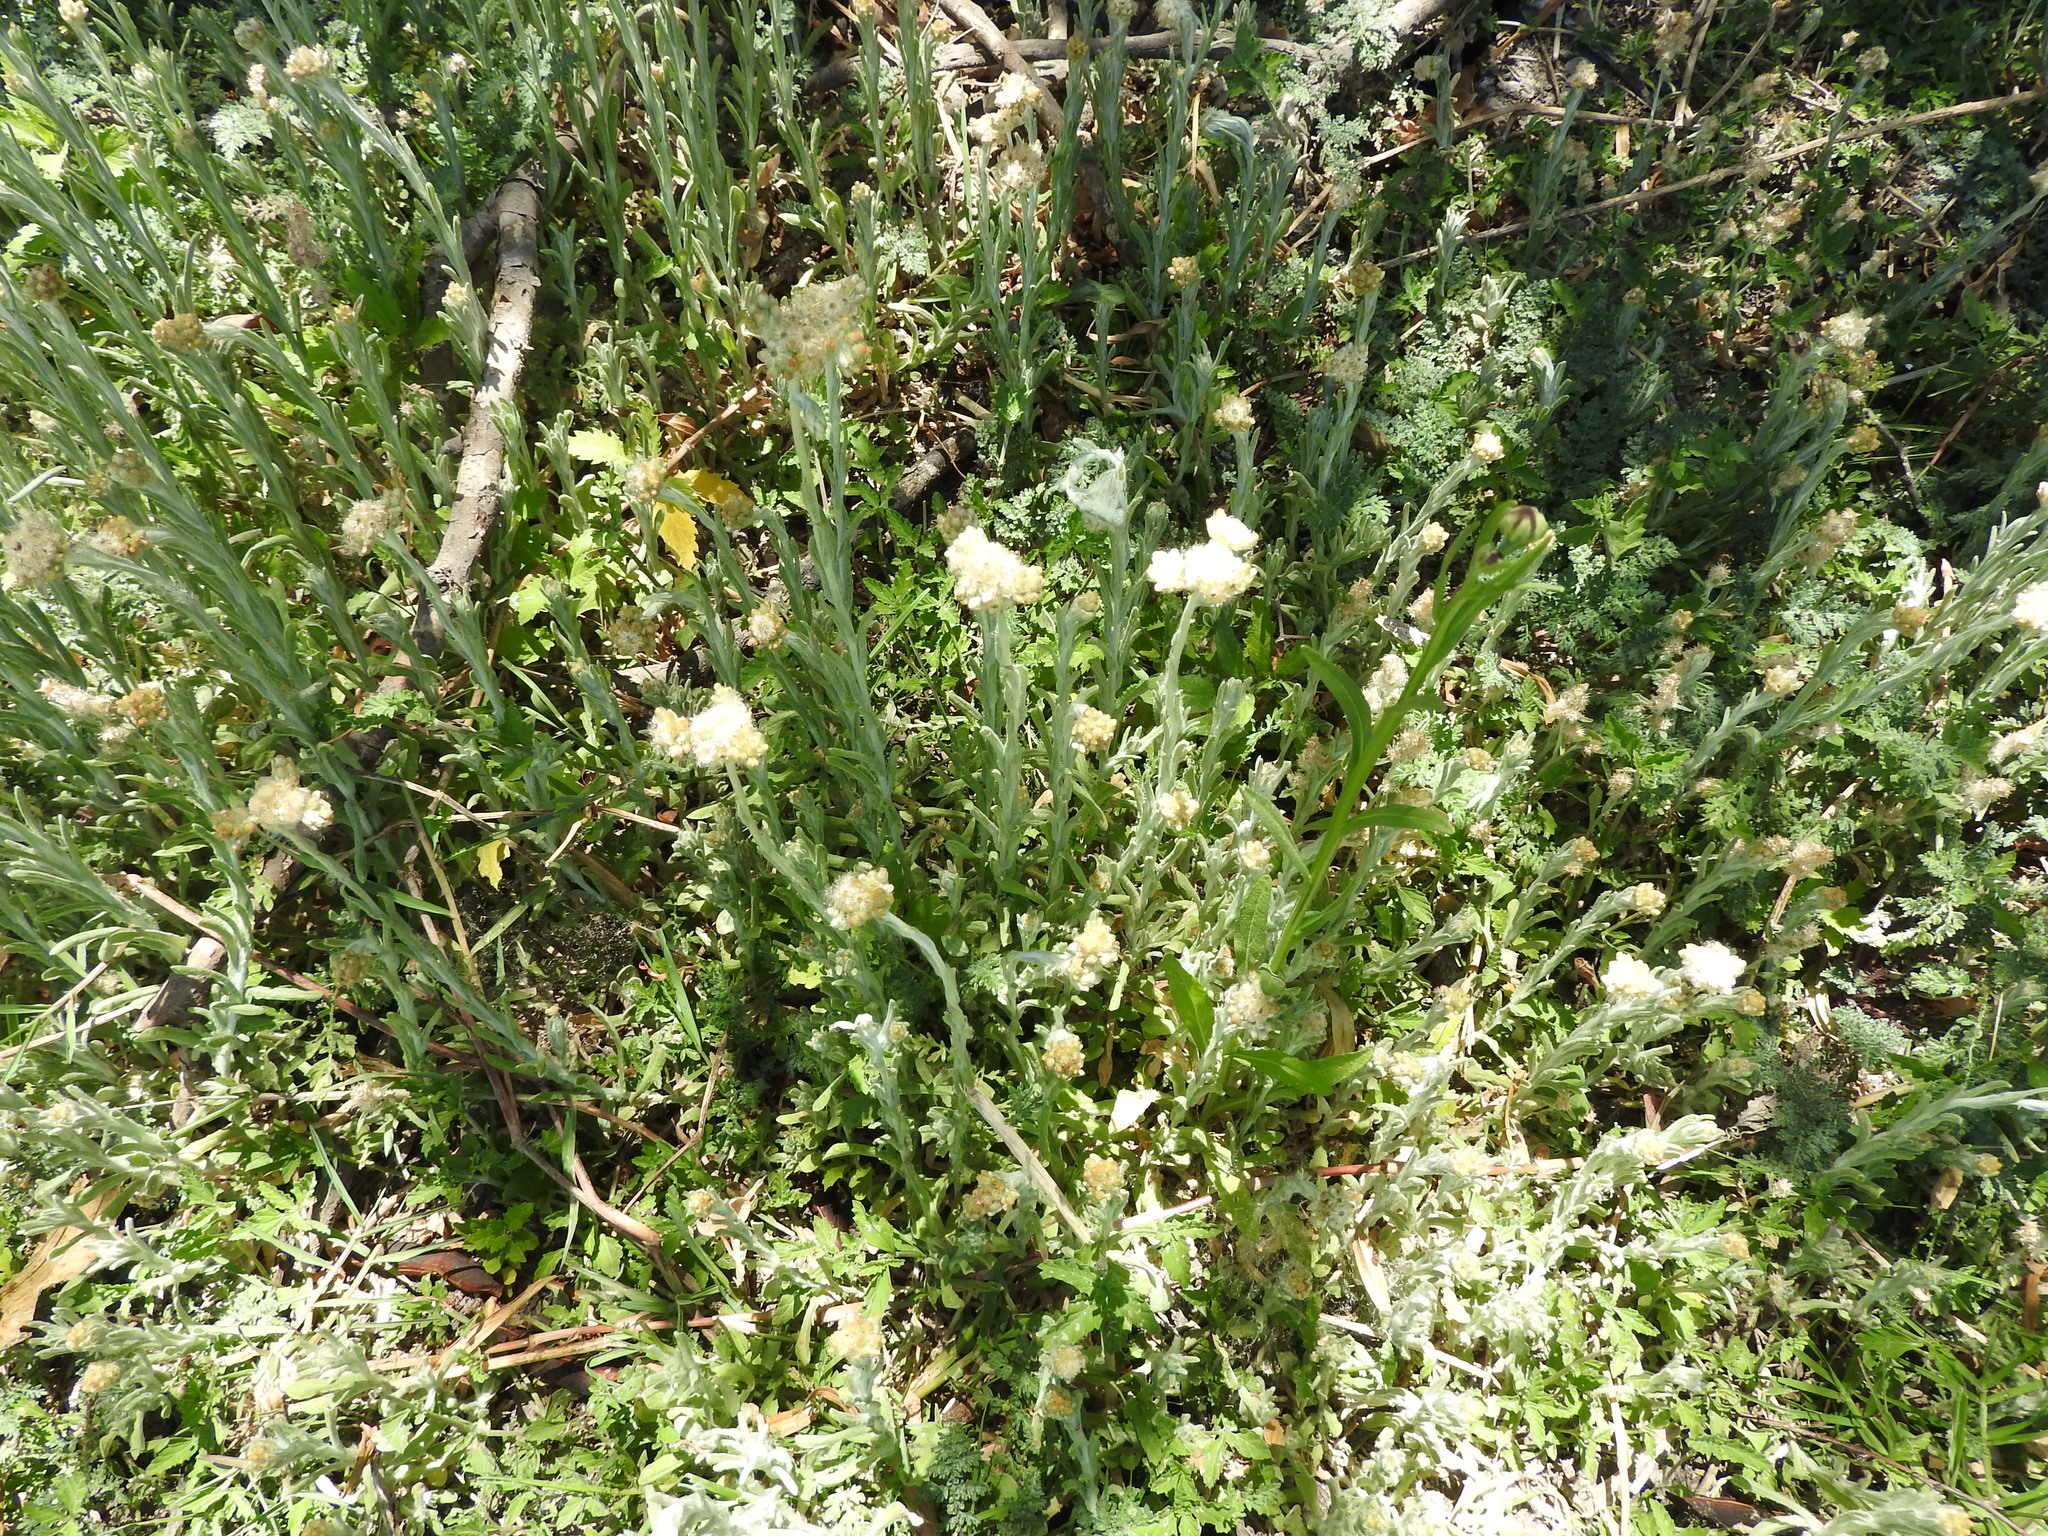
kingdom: Plantae
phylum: Tracheophyta
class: Magnoliopsida
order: Asterales
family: Asteraceae
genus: Helichrysum
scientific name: Helichrysum luteoalbum
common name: Daisy
